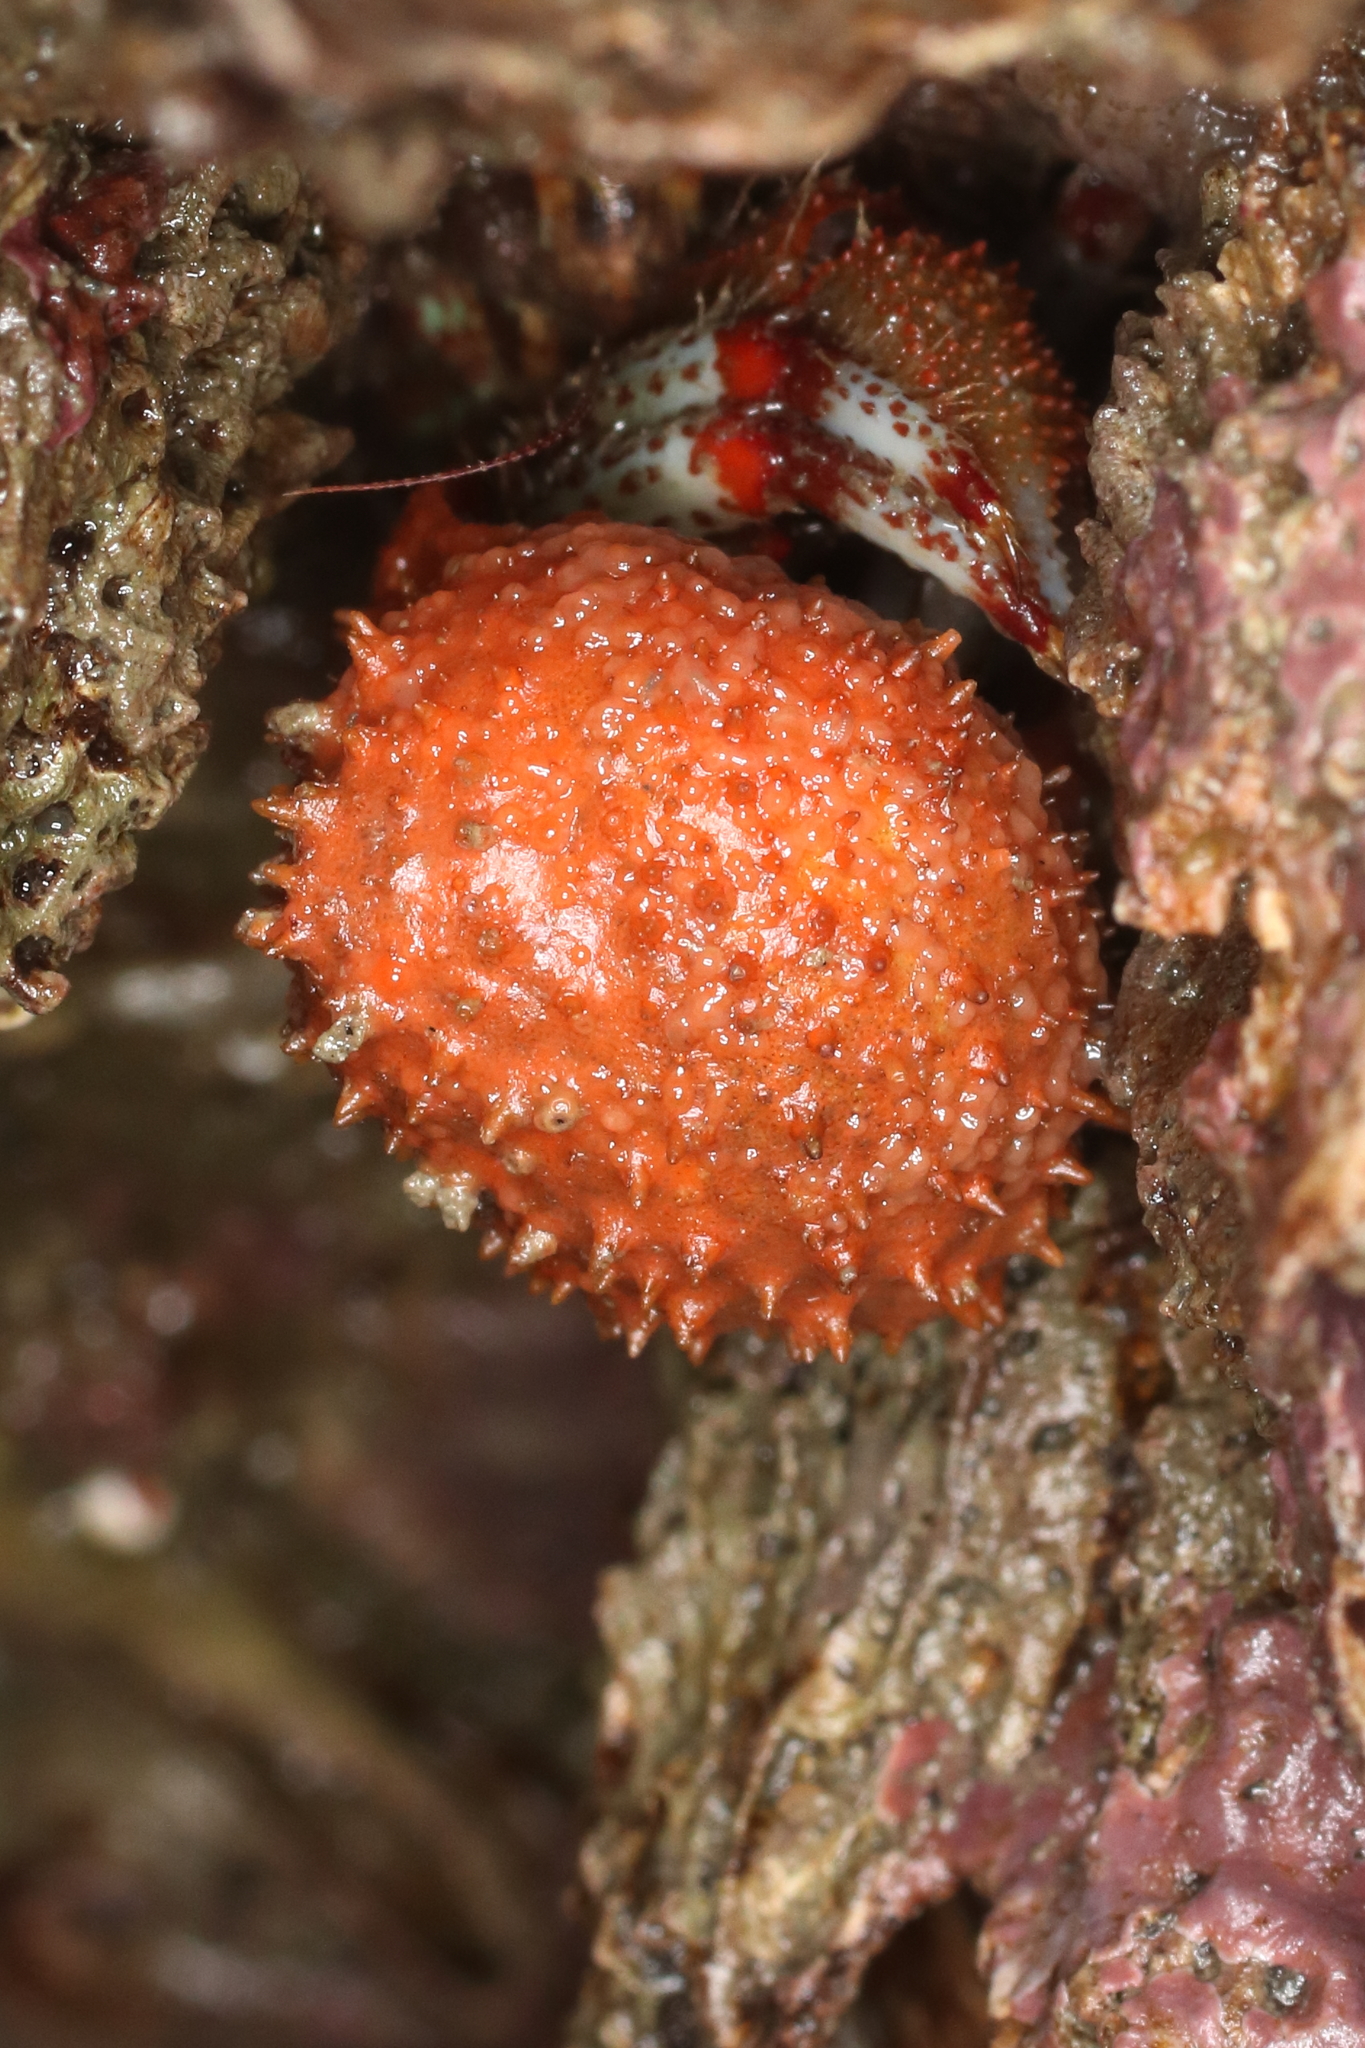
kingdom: Animalia
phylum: Arthropoda
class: Malacostraca
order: Decapoda
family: Paguridae
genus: Pagurus
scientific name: Pagurus beringanus
